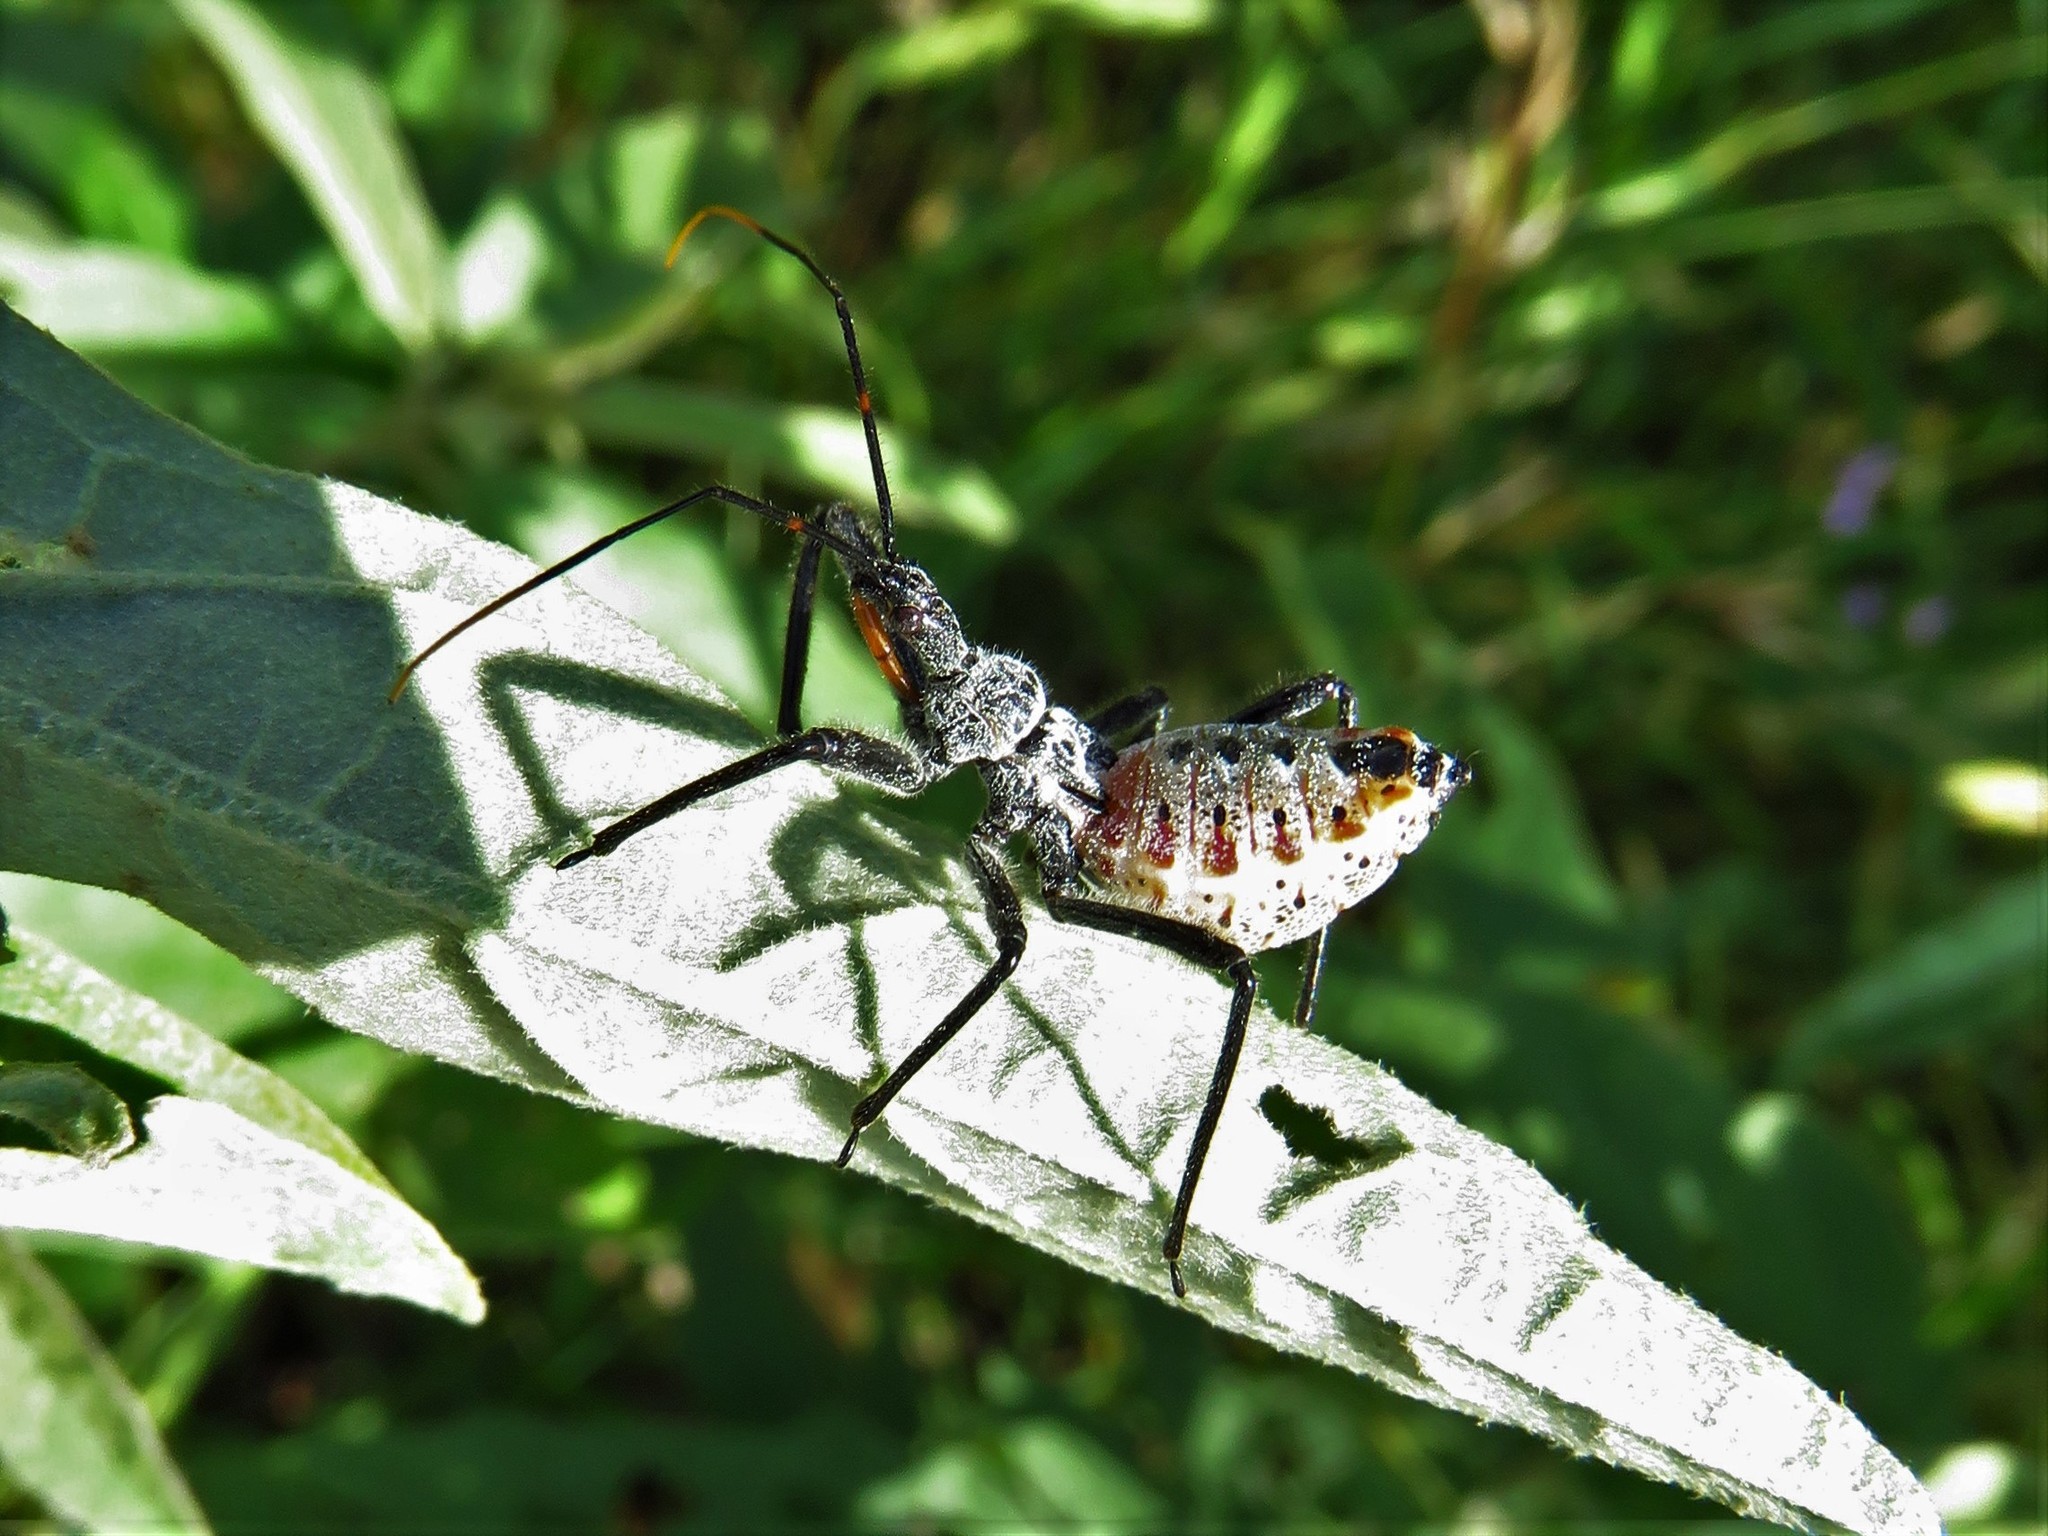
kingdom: Animalia
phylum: Arthropoda
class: Insecta
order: Hemiptera
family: Reduviidae
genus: Arilus
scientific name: Arilus cristatus
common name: North american wheel bug
